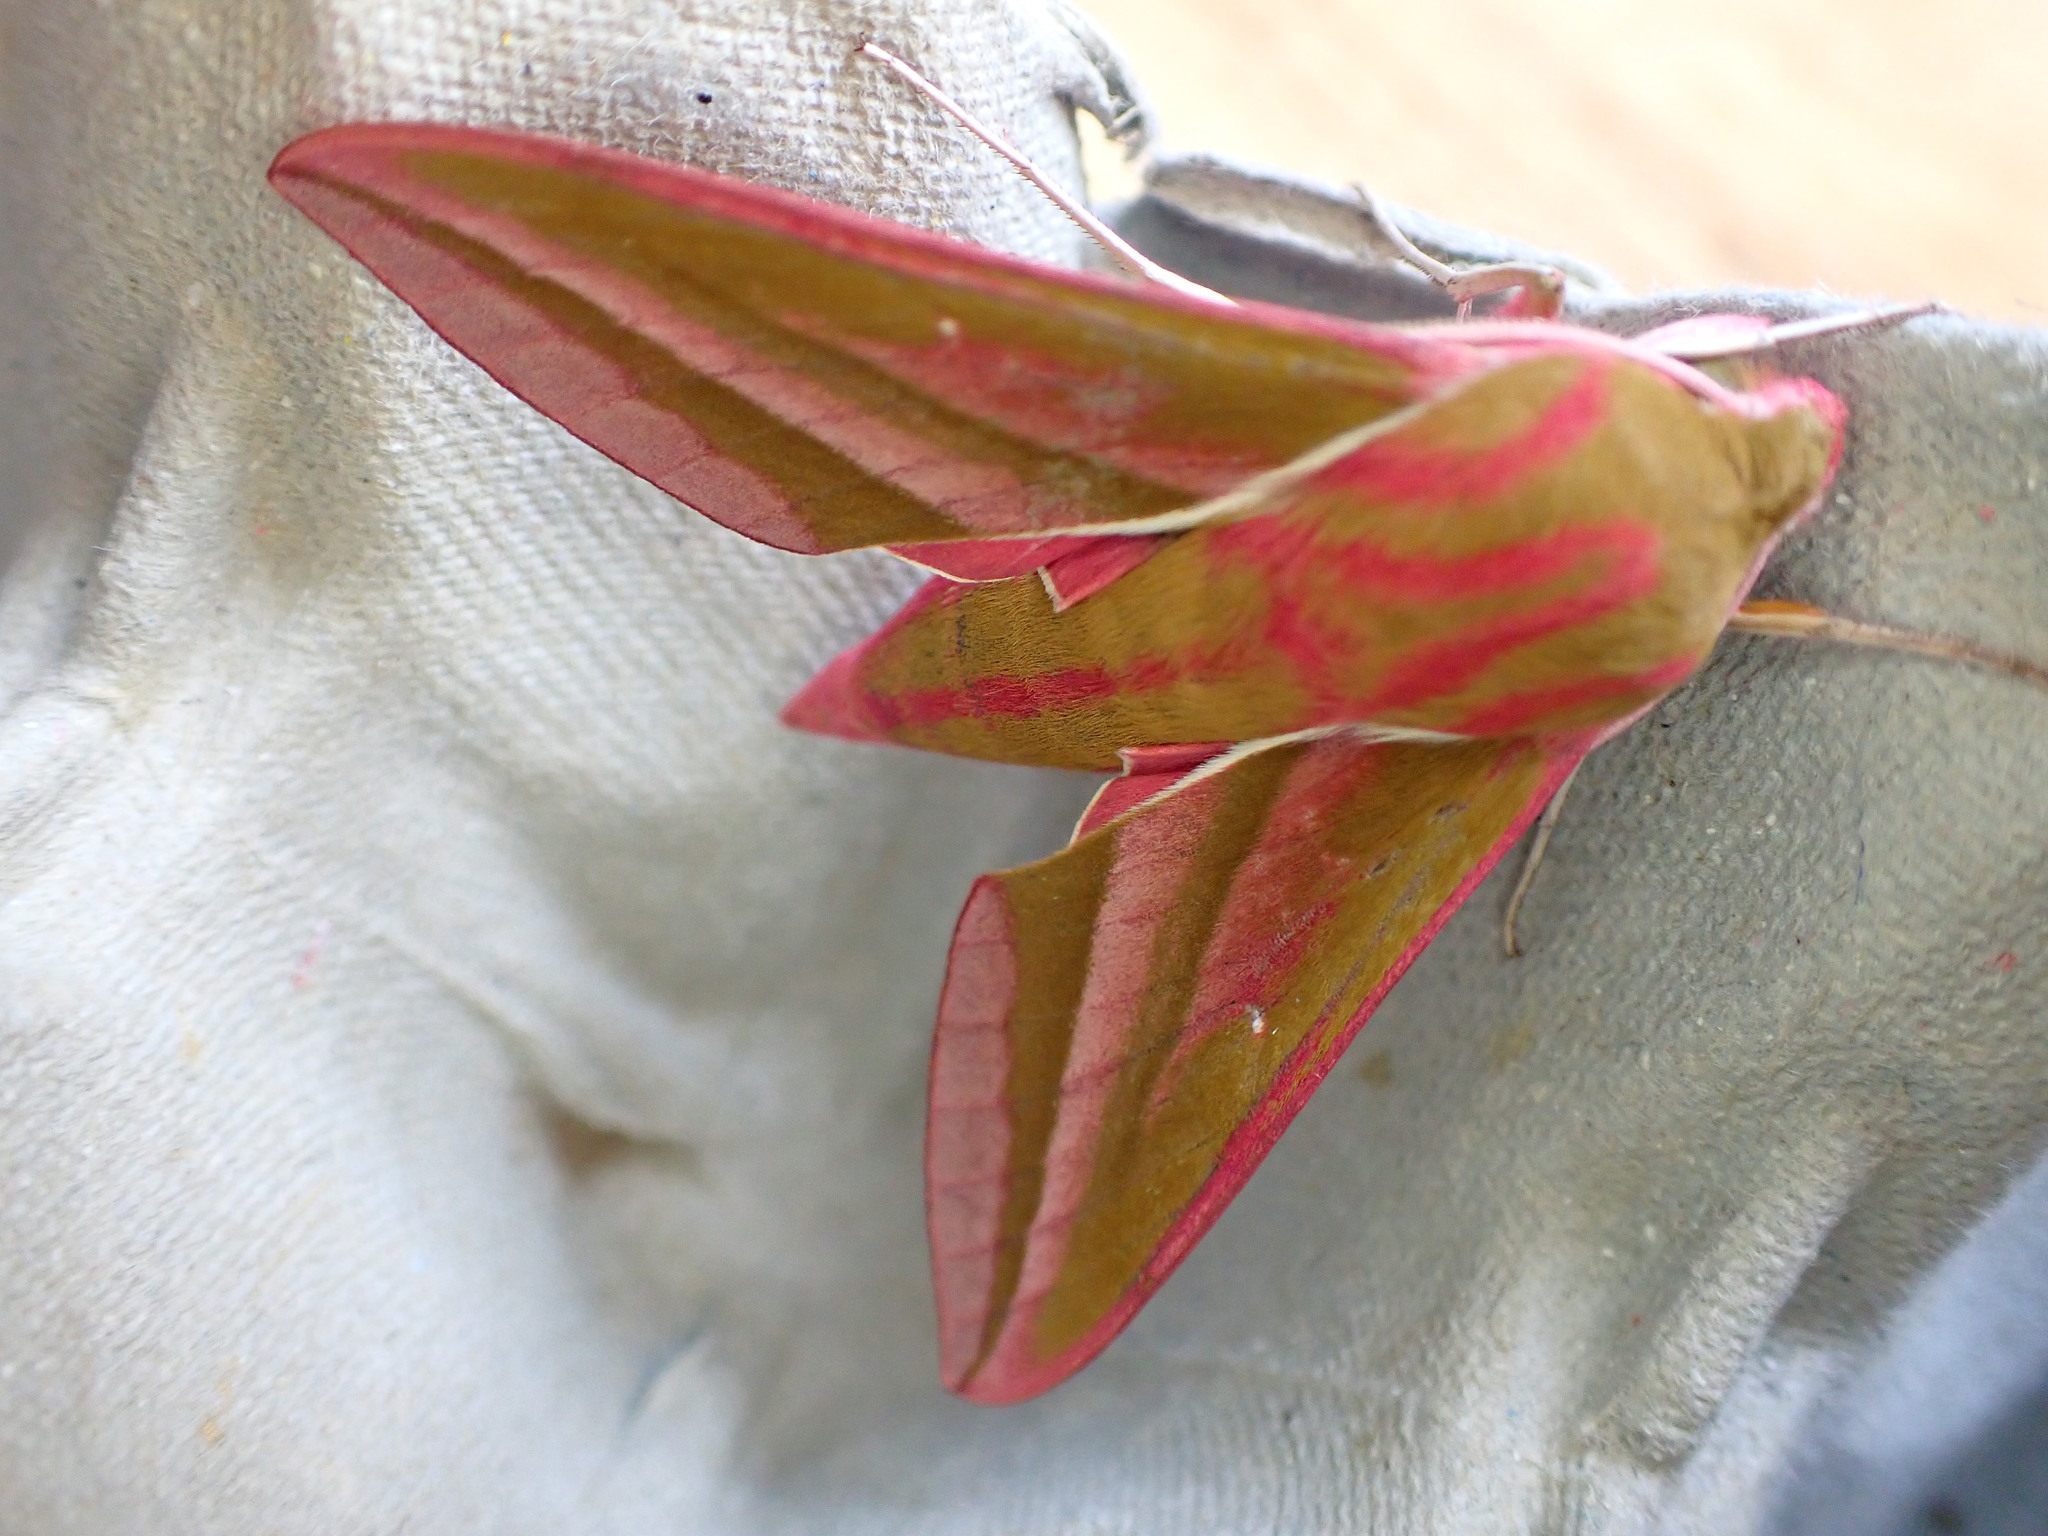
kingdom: Animalia
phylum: Arthropoda
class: Insecta
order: Lepidoptera
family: Sphingidae
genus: Deilephila
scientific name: Deilephila elpenor
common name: Elephant hawk-moth
